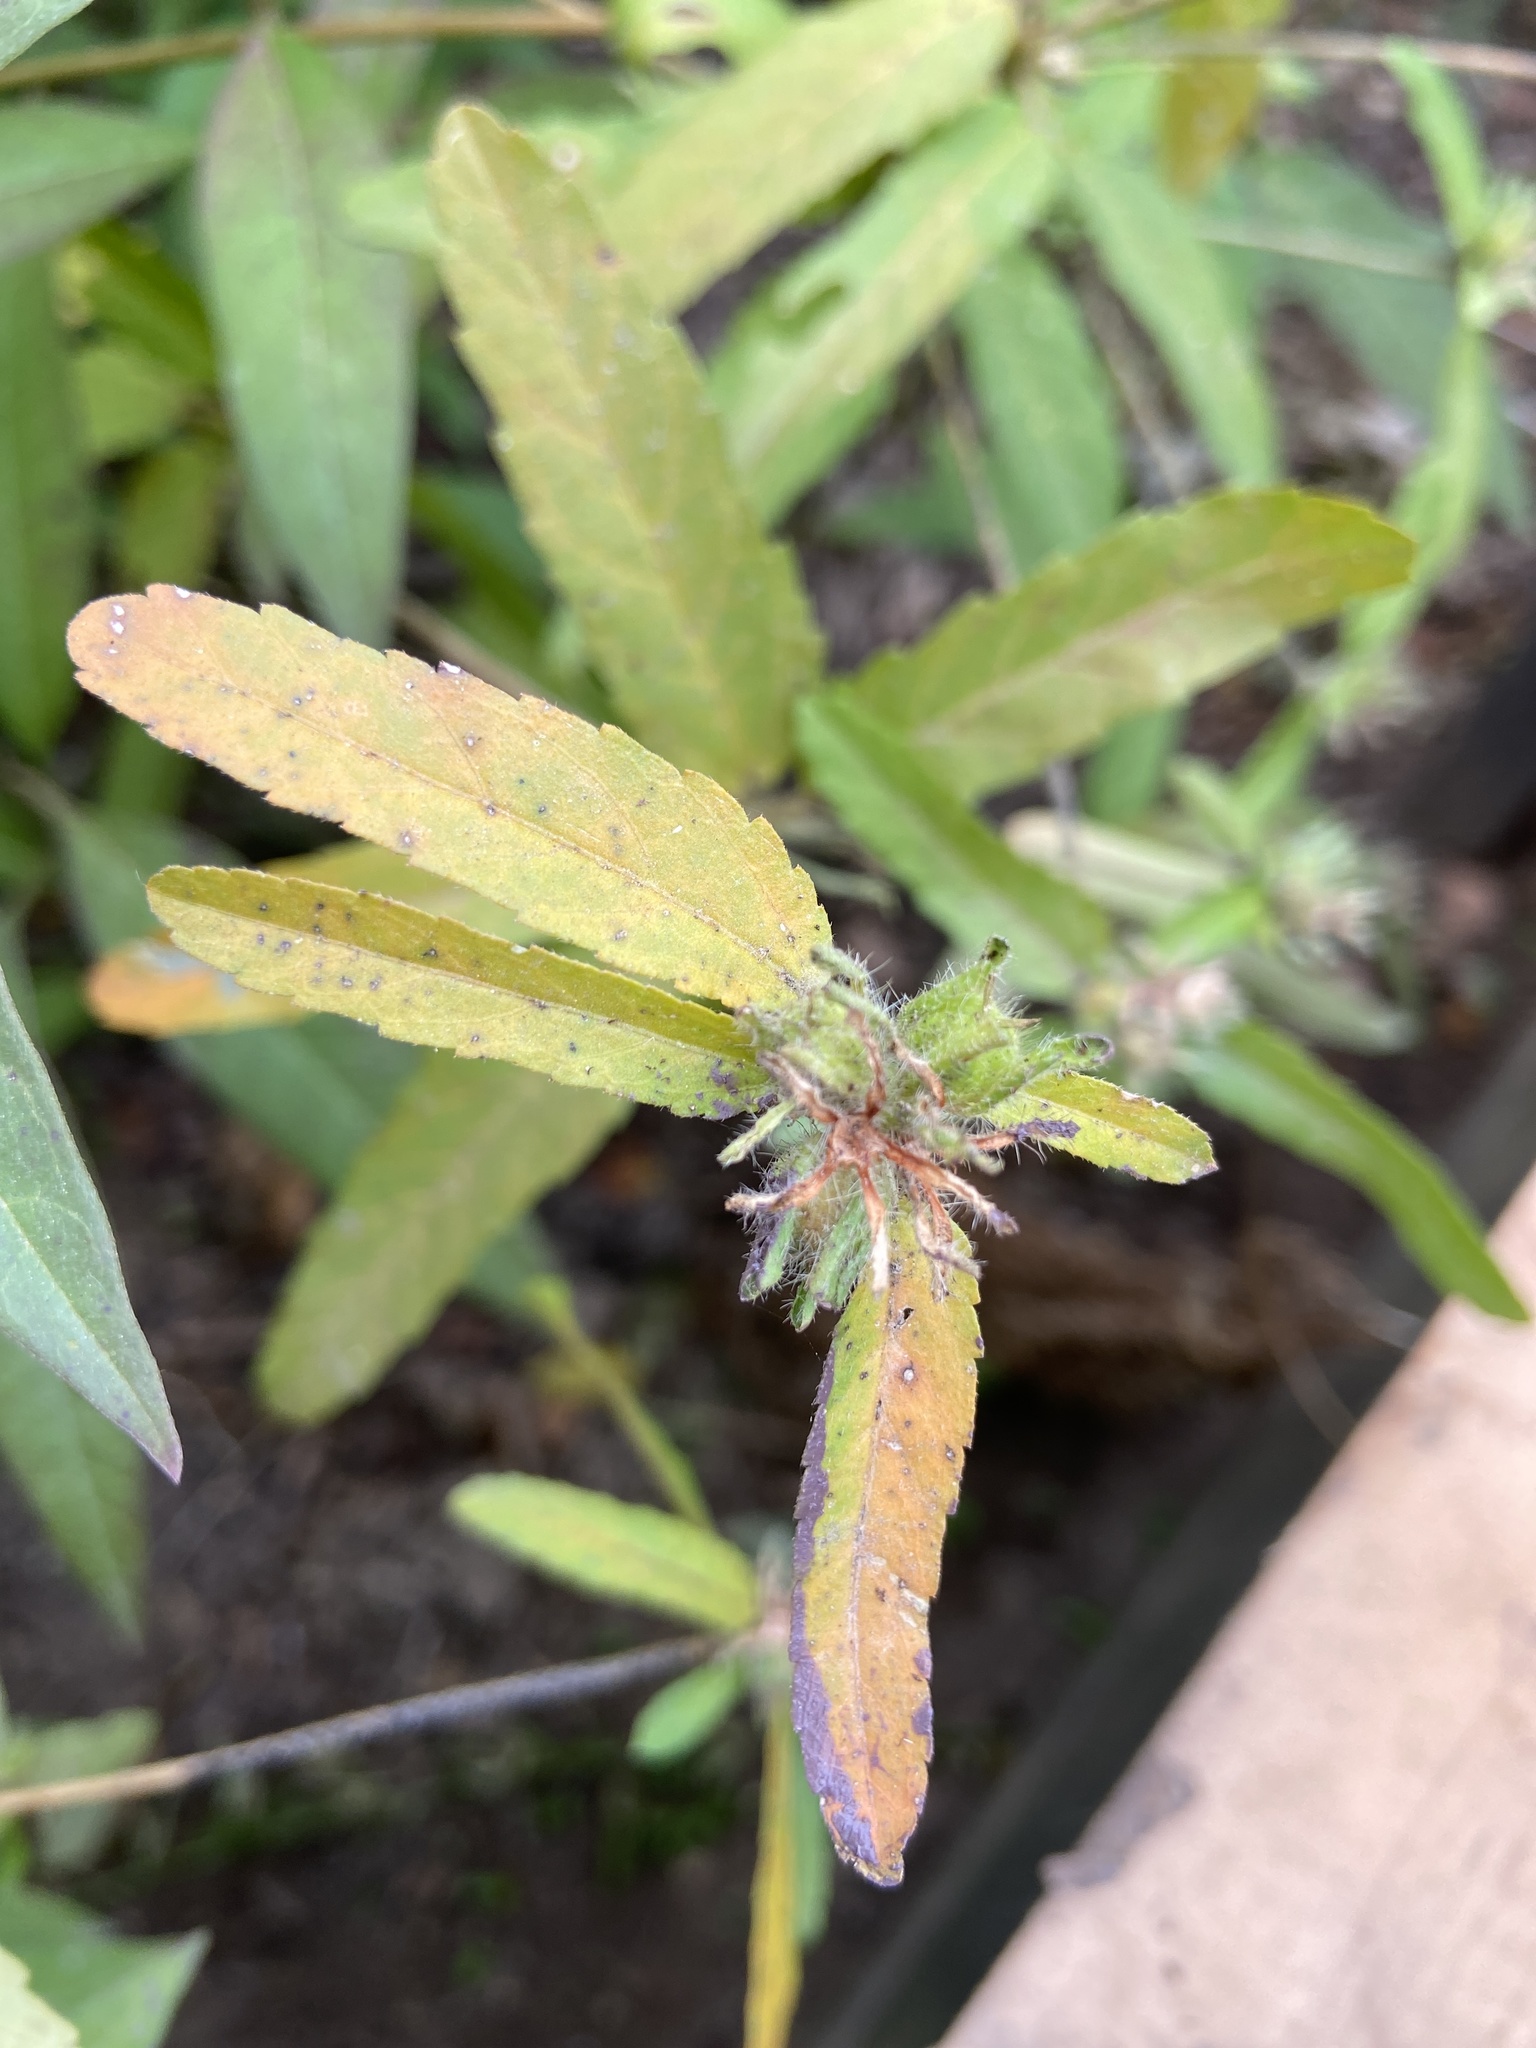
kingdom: Plantae
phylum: Tracheophyta
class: Magnoliopsida
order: Malpighiales
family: Euphorbiaceae
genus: Croton
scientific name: Croton glandulosus
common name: Tropic croton
